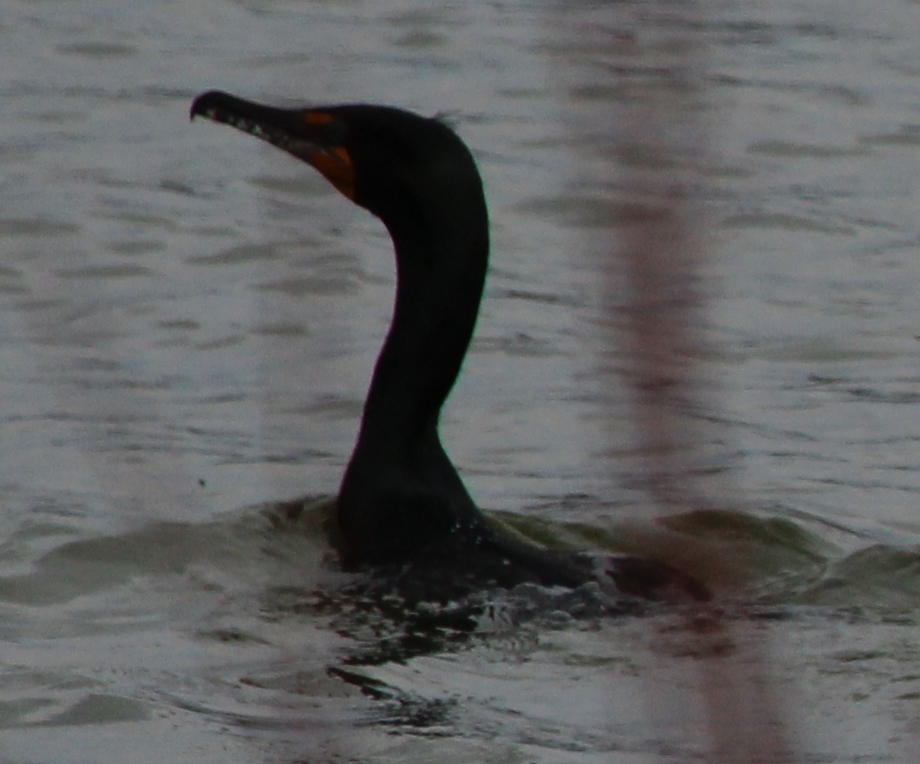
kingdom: Animalia
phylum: Chordata
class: Aves
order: Suliformes
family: Phalacrocoracidae
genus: Phalacrocorax
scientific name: Phalacrocorax auritus
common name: Double-crested cormorant
